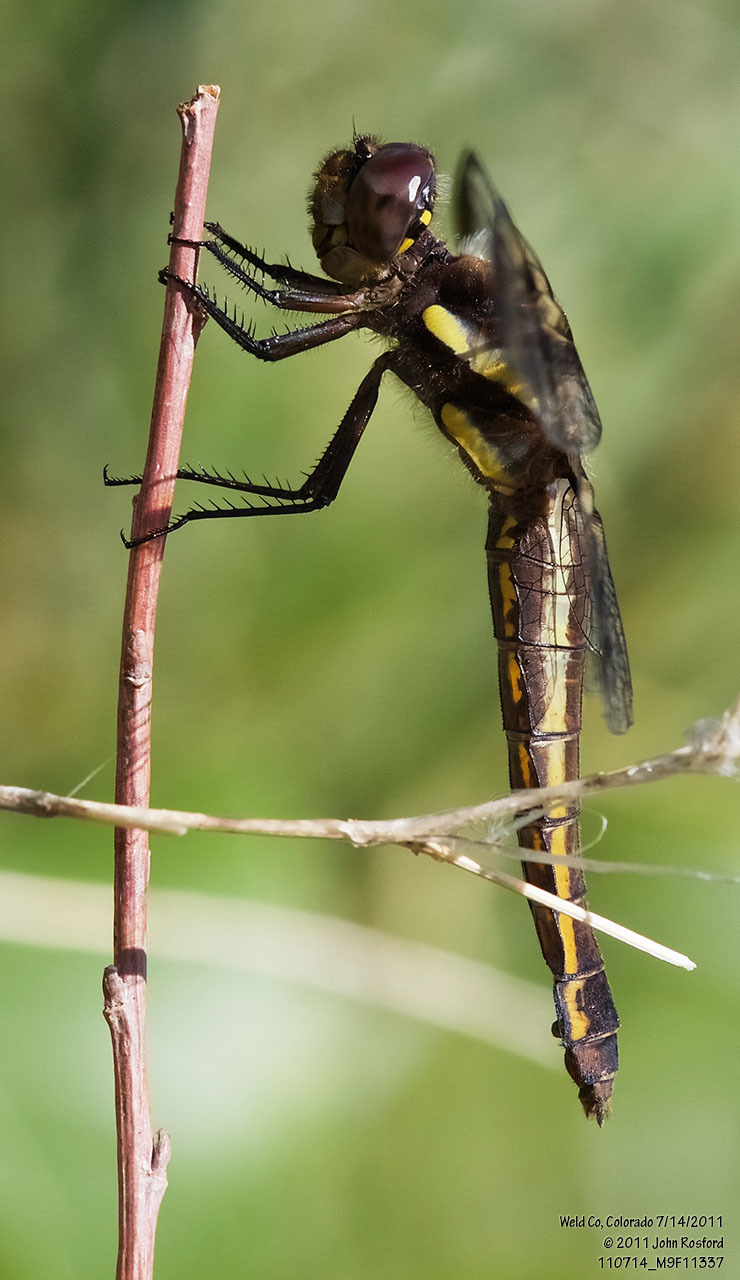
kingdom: Animalia
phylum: Arthropoda
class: Insecta
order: Odonata
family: Libellulidae
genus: Libellula
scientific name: Libellula pulchella
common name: Twelve-spotted skimmer
